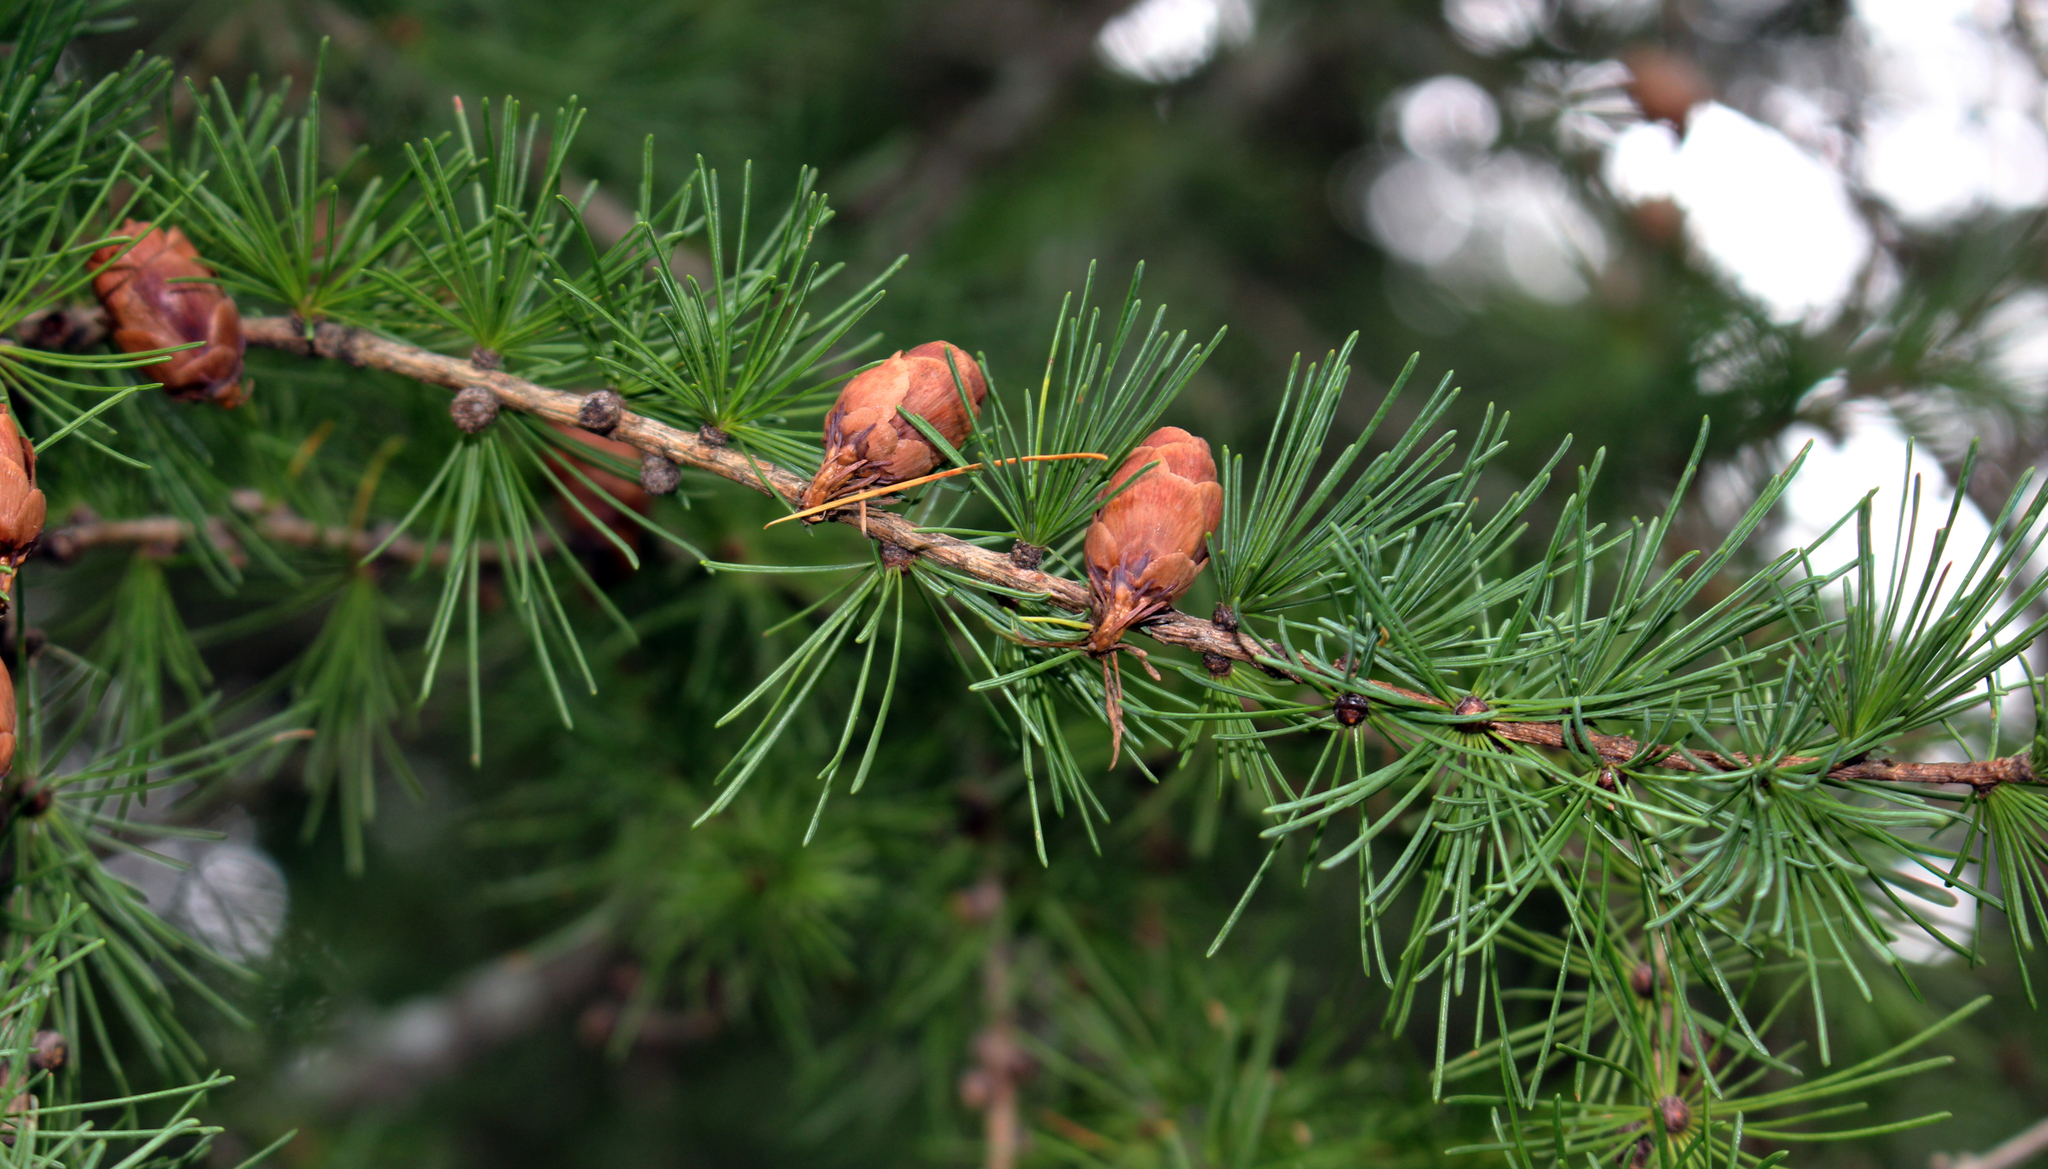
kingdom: Plantae
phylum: Tracheophyta
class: Pinopsida
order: Pinales
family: Pinaceae
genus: Larix
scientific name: Larix laricina
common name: American larch
